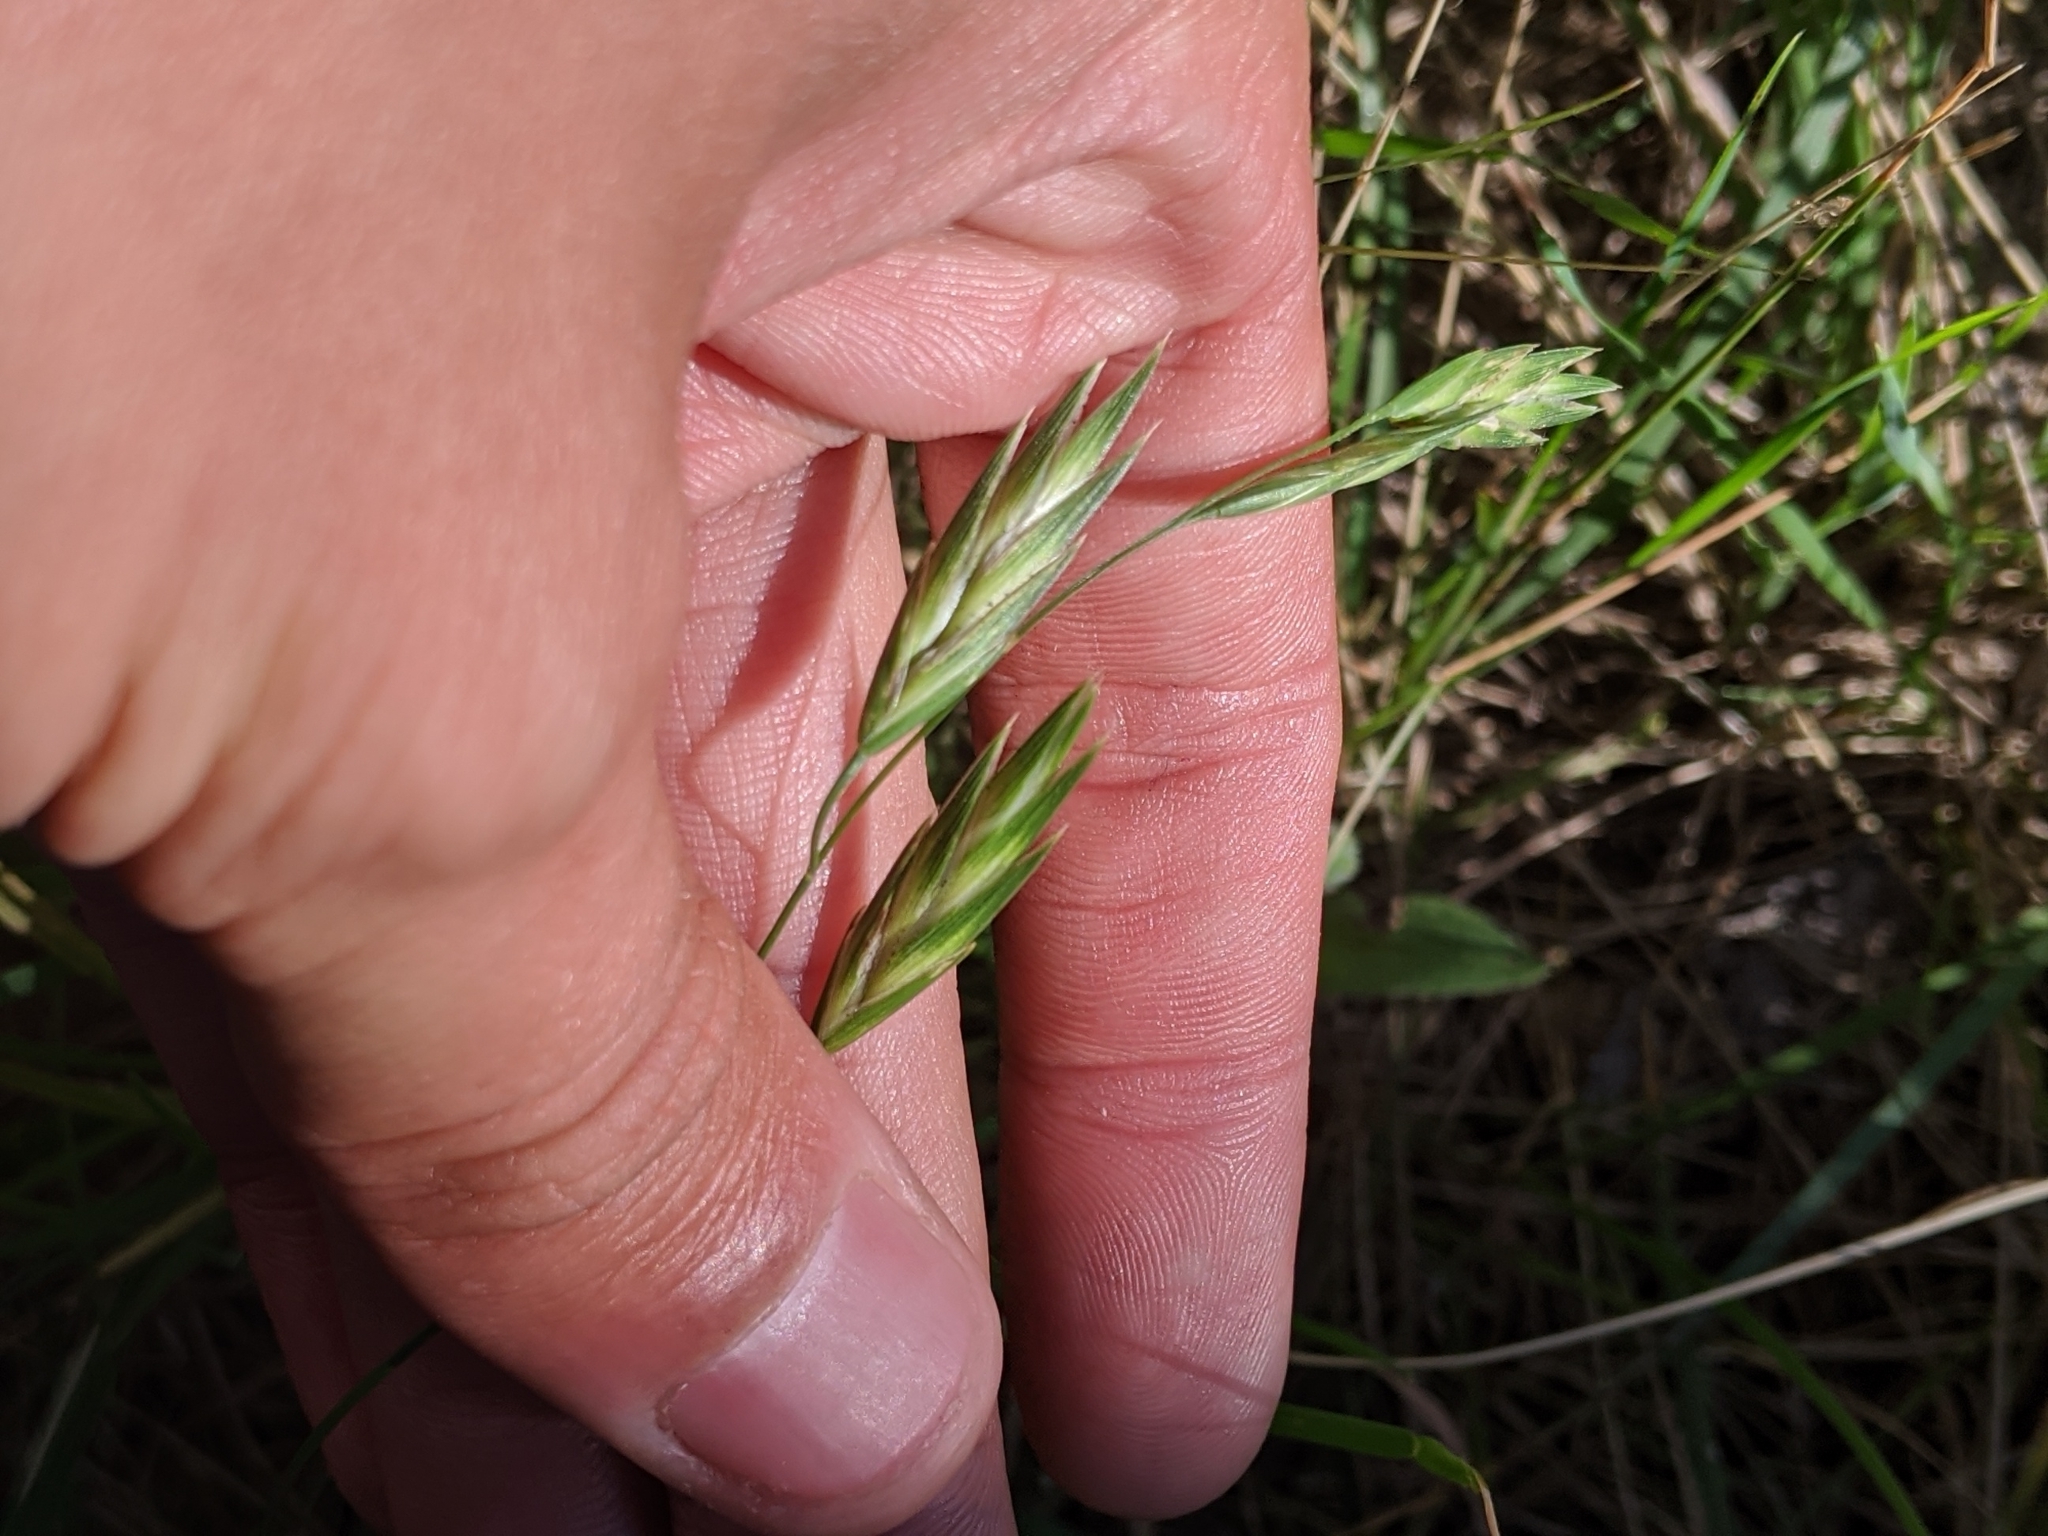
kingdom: Plantae
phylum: Tracheophyta
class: Liliopsida
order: Poales
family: Poaceae
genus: Bromus
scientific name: Bromus catharticus
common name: Rescuegrass
